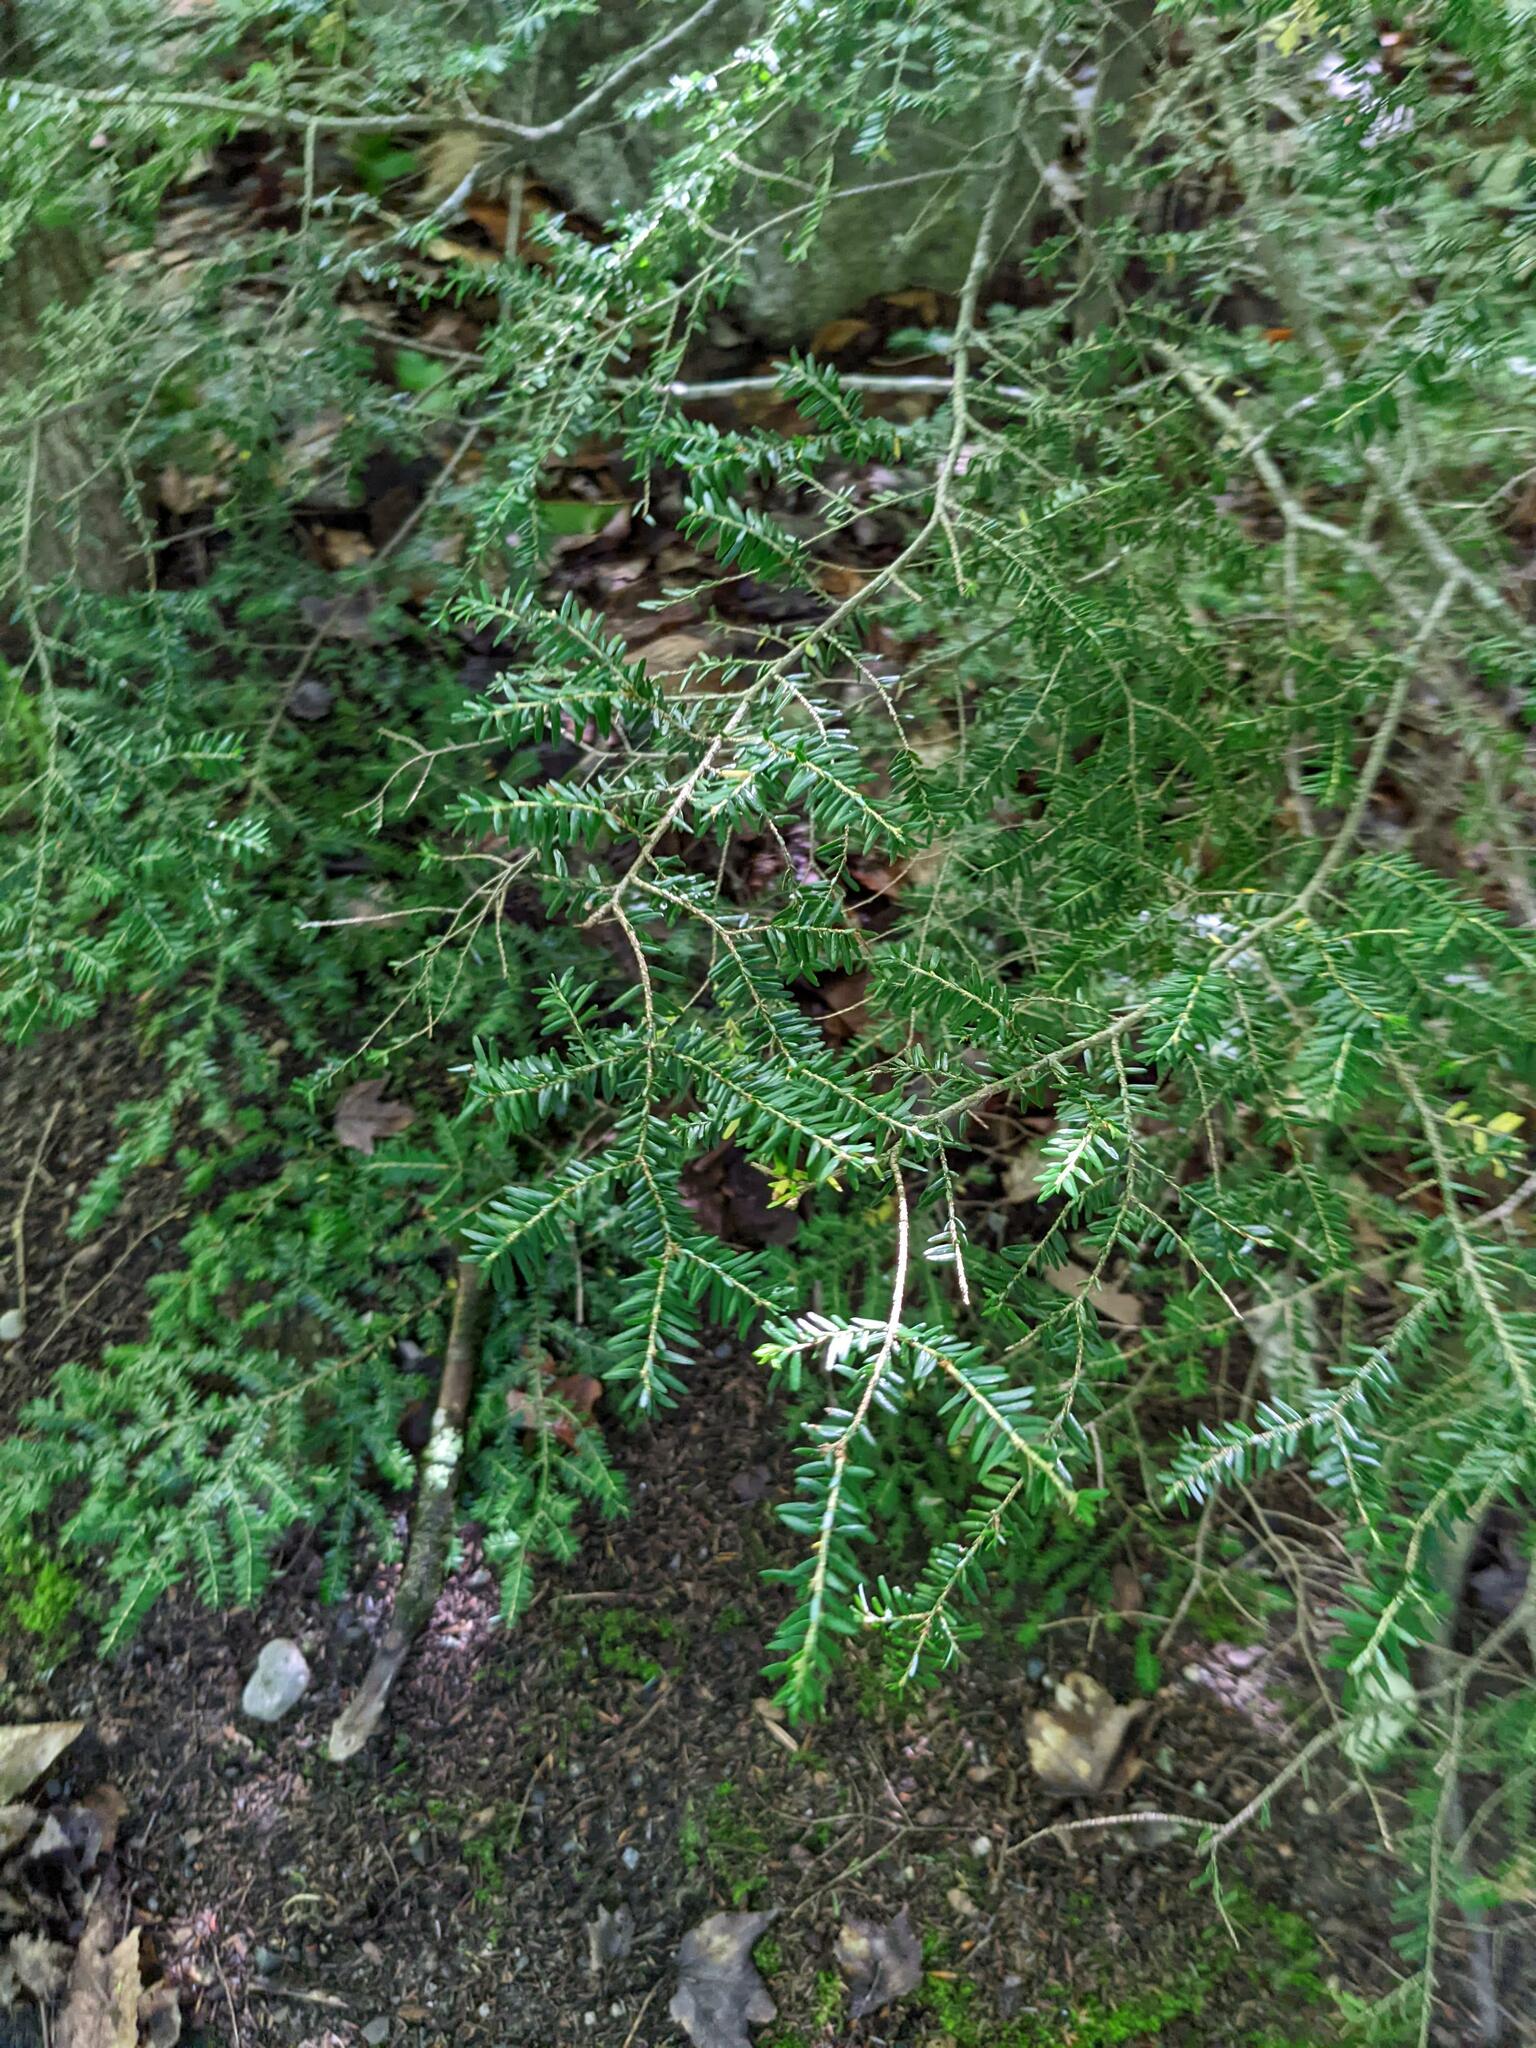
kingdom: Plantae
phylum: Tracheophyta
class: Pinopsida
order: Pinales
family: Pinaceae
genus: Tsuga
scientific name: Tsuga canadensis
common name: Eastern hemlock
